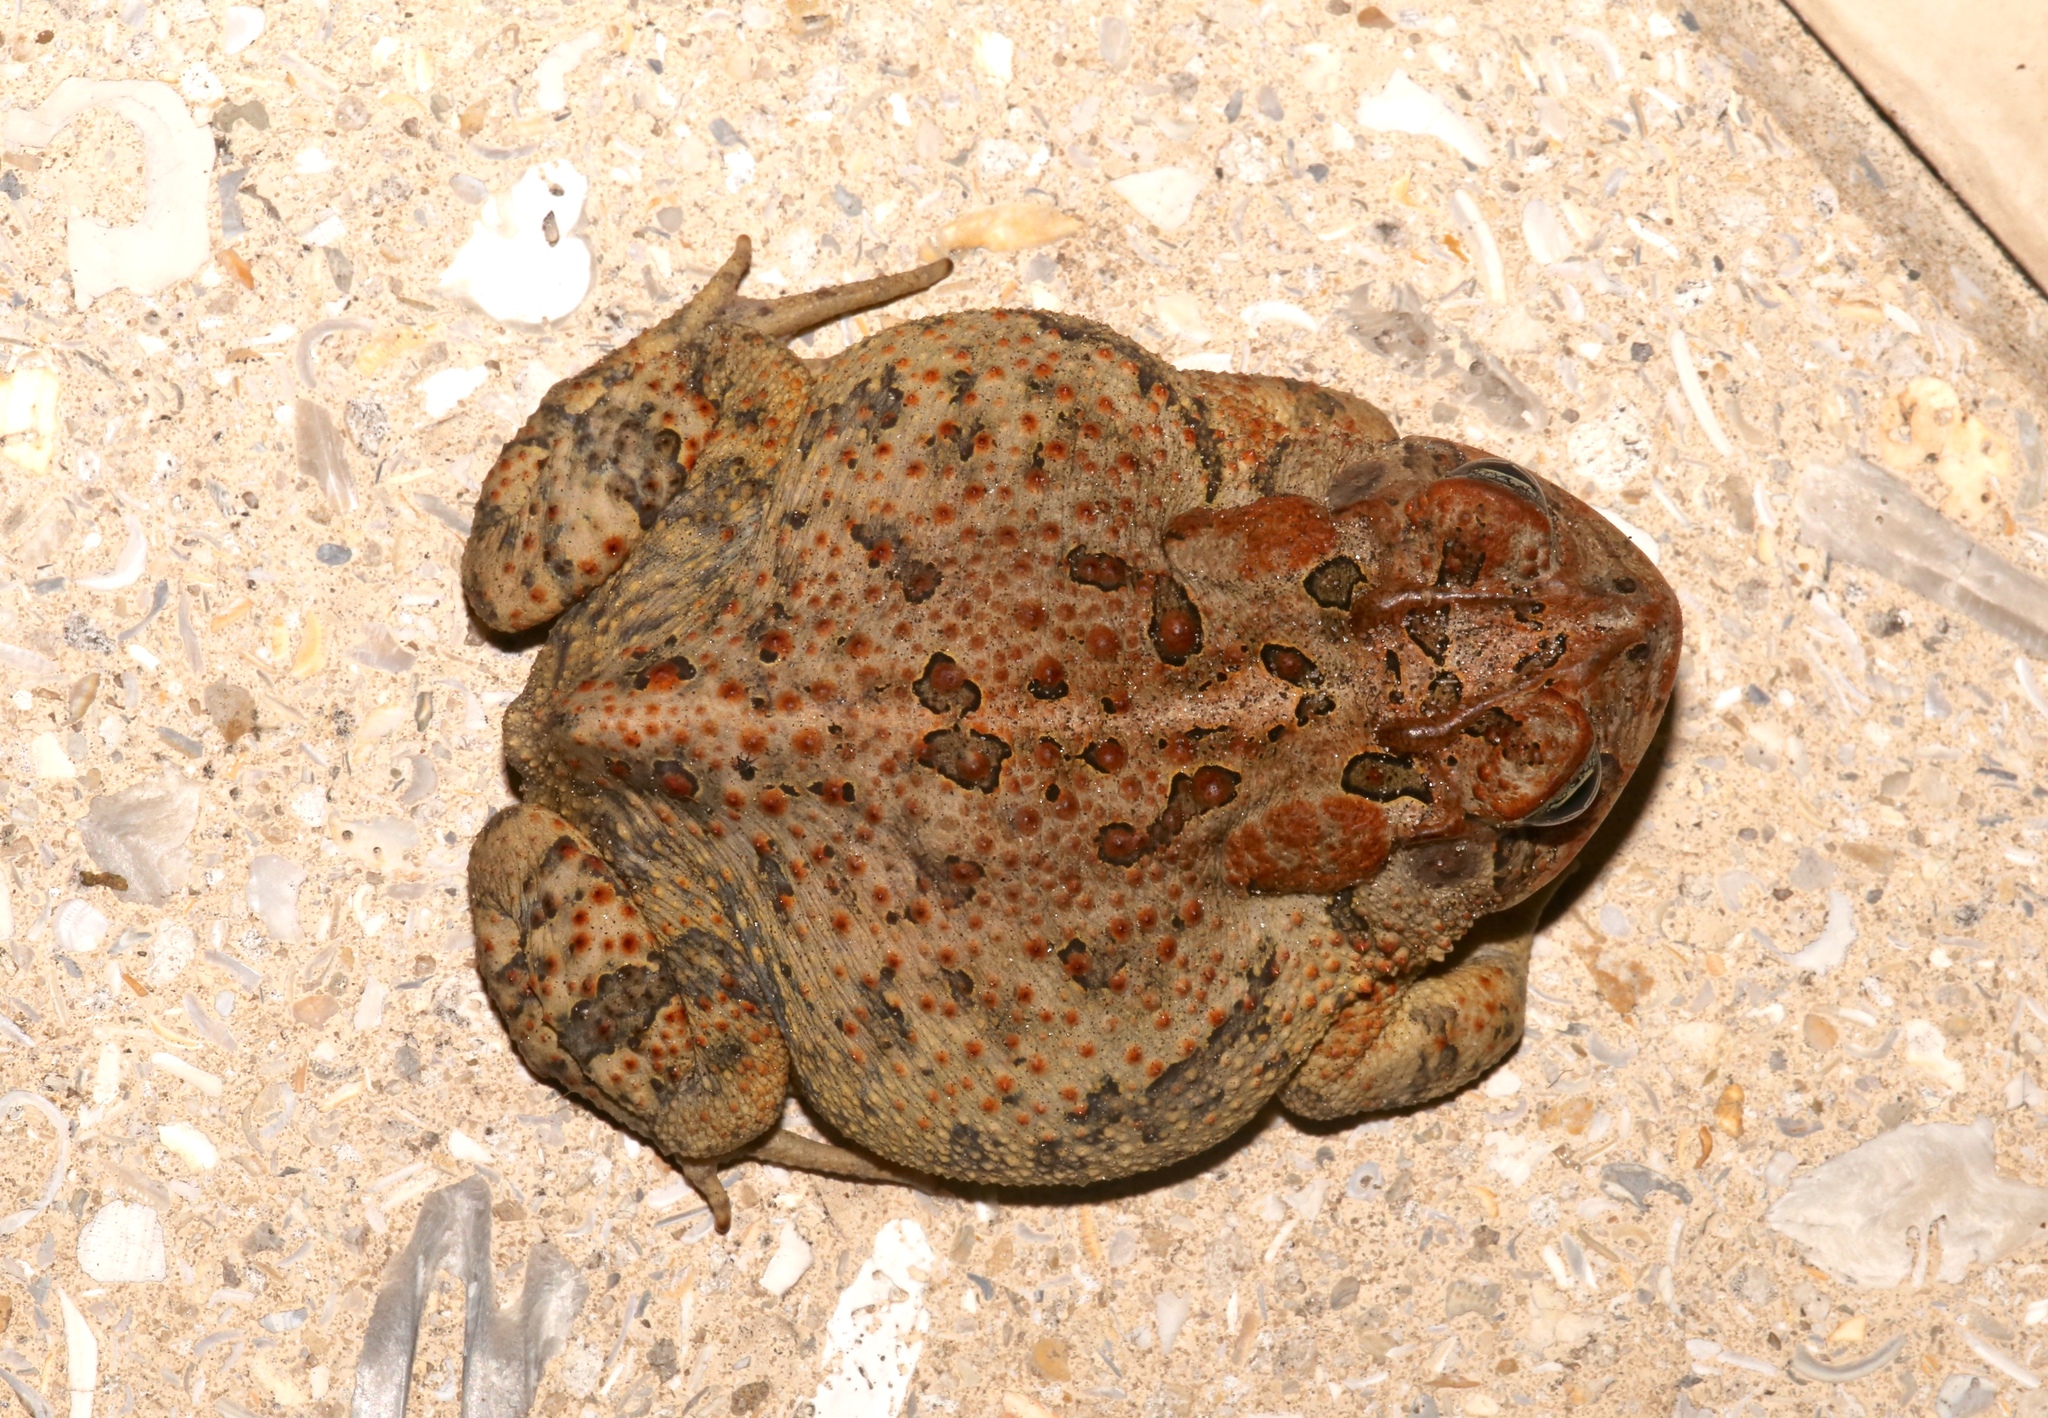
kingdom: Animalia
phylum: Chordata
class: Amphibia
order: Anura
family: Bufonidae
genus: Anaxyrus
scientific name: Anaxyrus terrestris
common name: Southern toad
